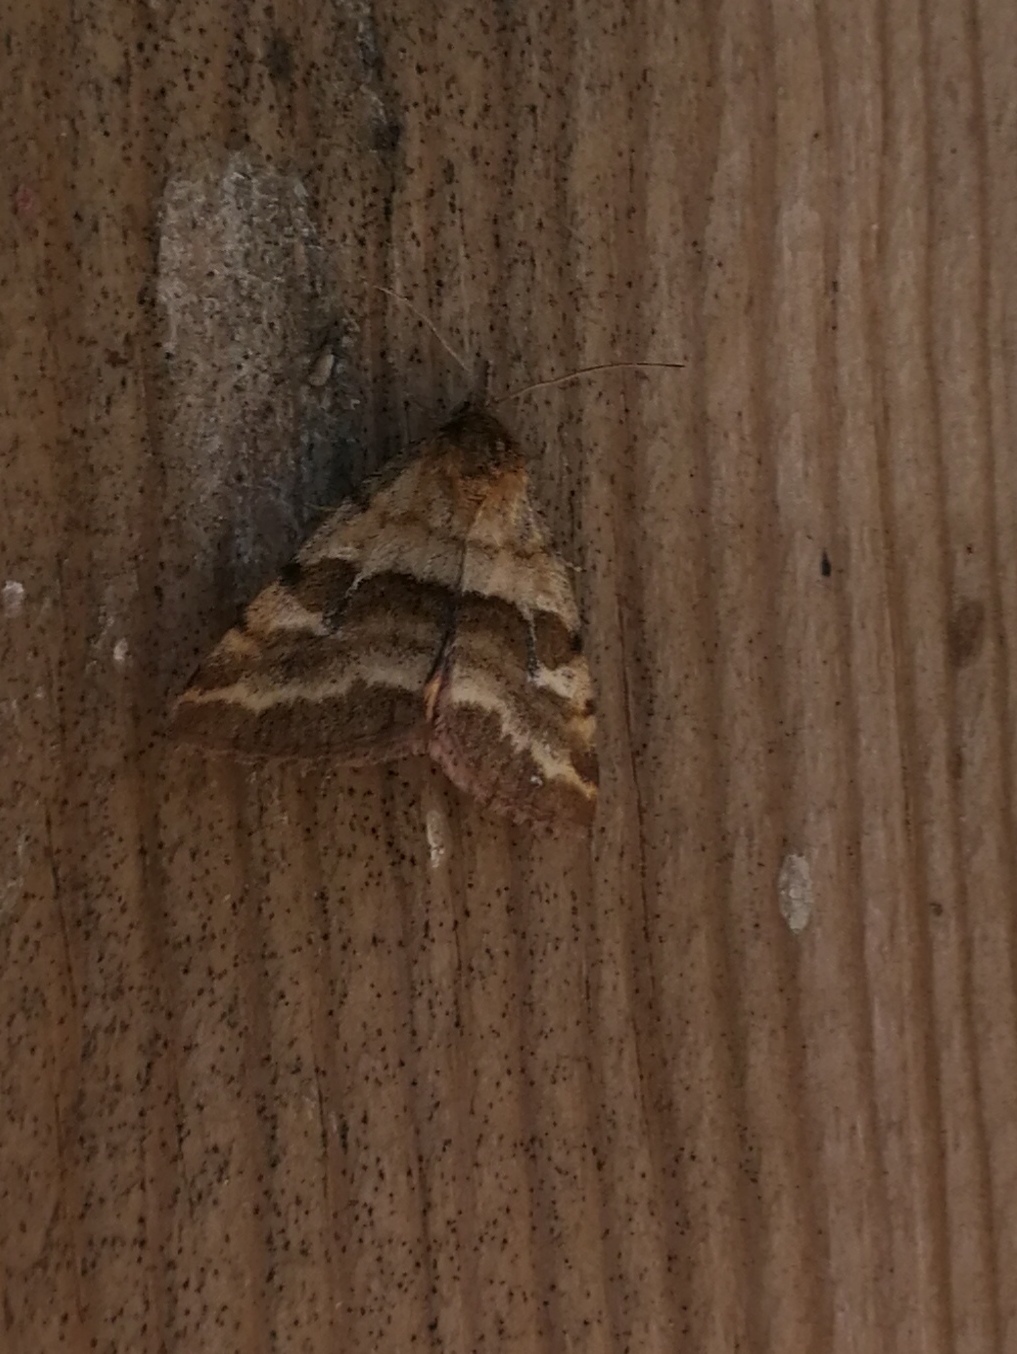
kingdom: Animalia
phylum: Arthropoda
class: Insecta
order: Lepidoptera
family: Noctuidae
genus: Synthymia
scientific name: Synthymia fixa
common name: Goldwing
